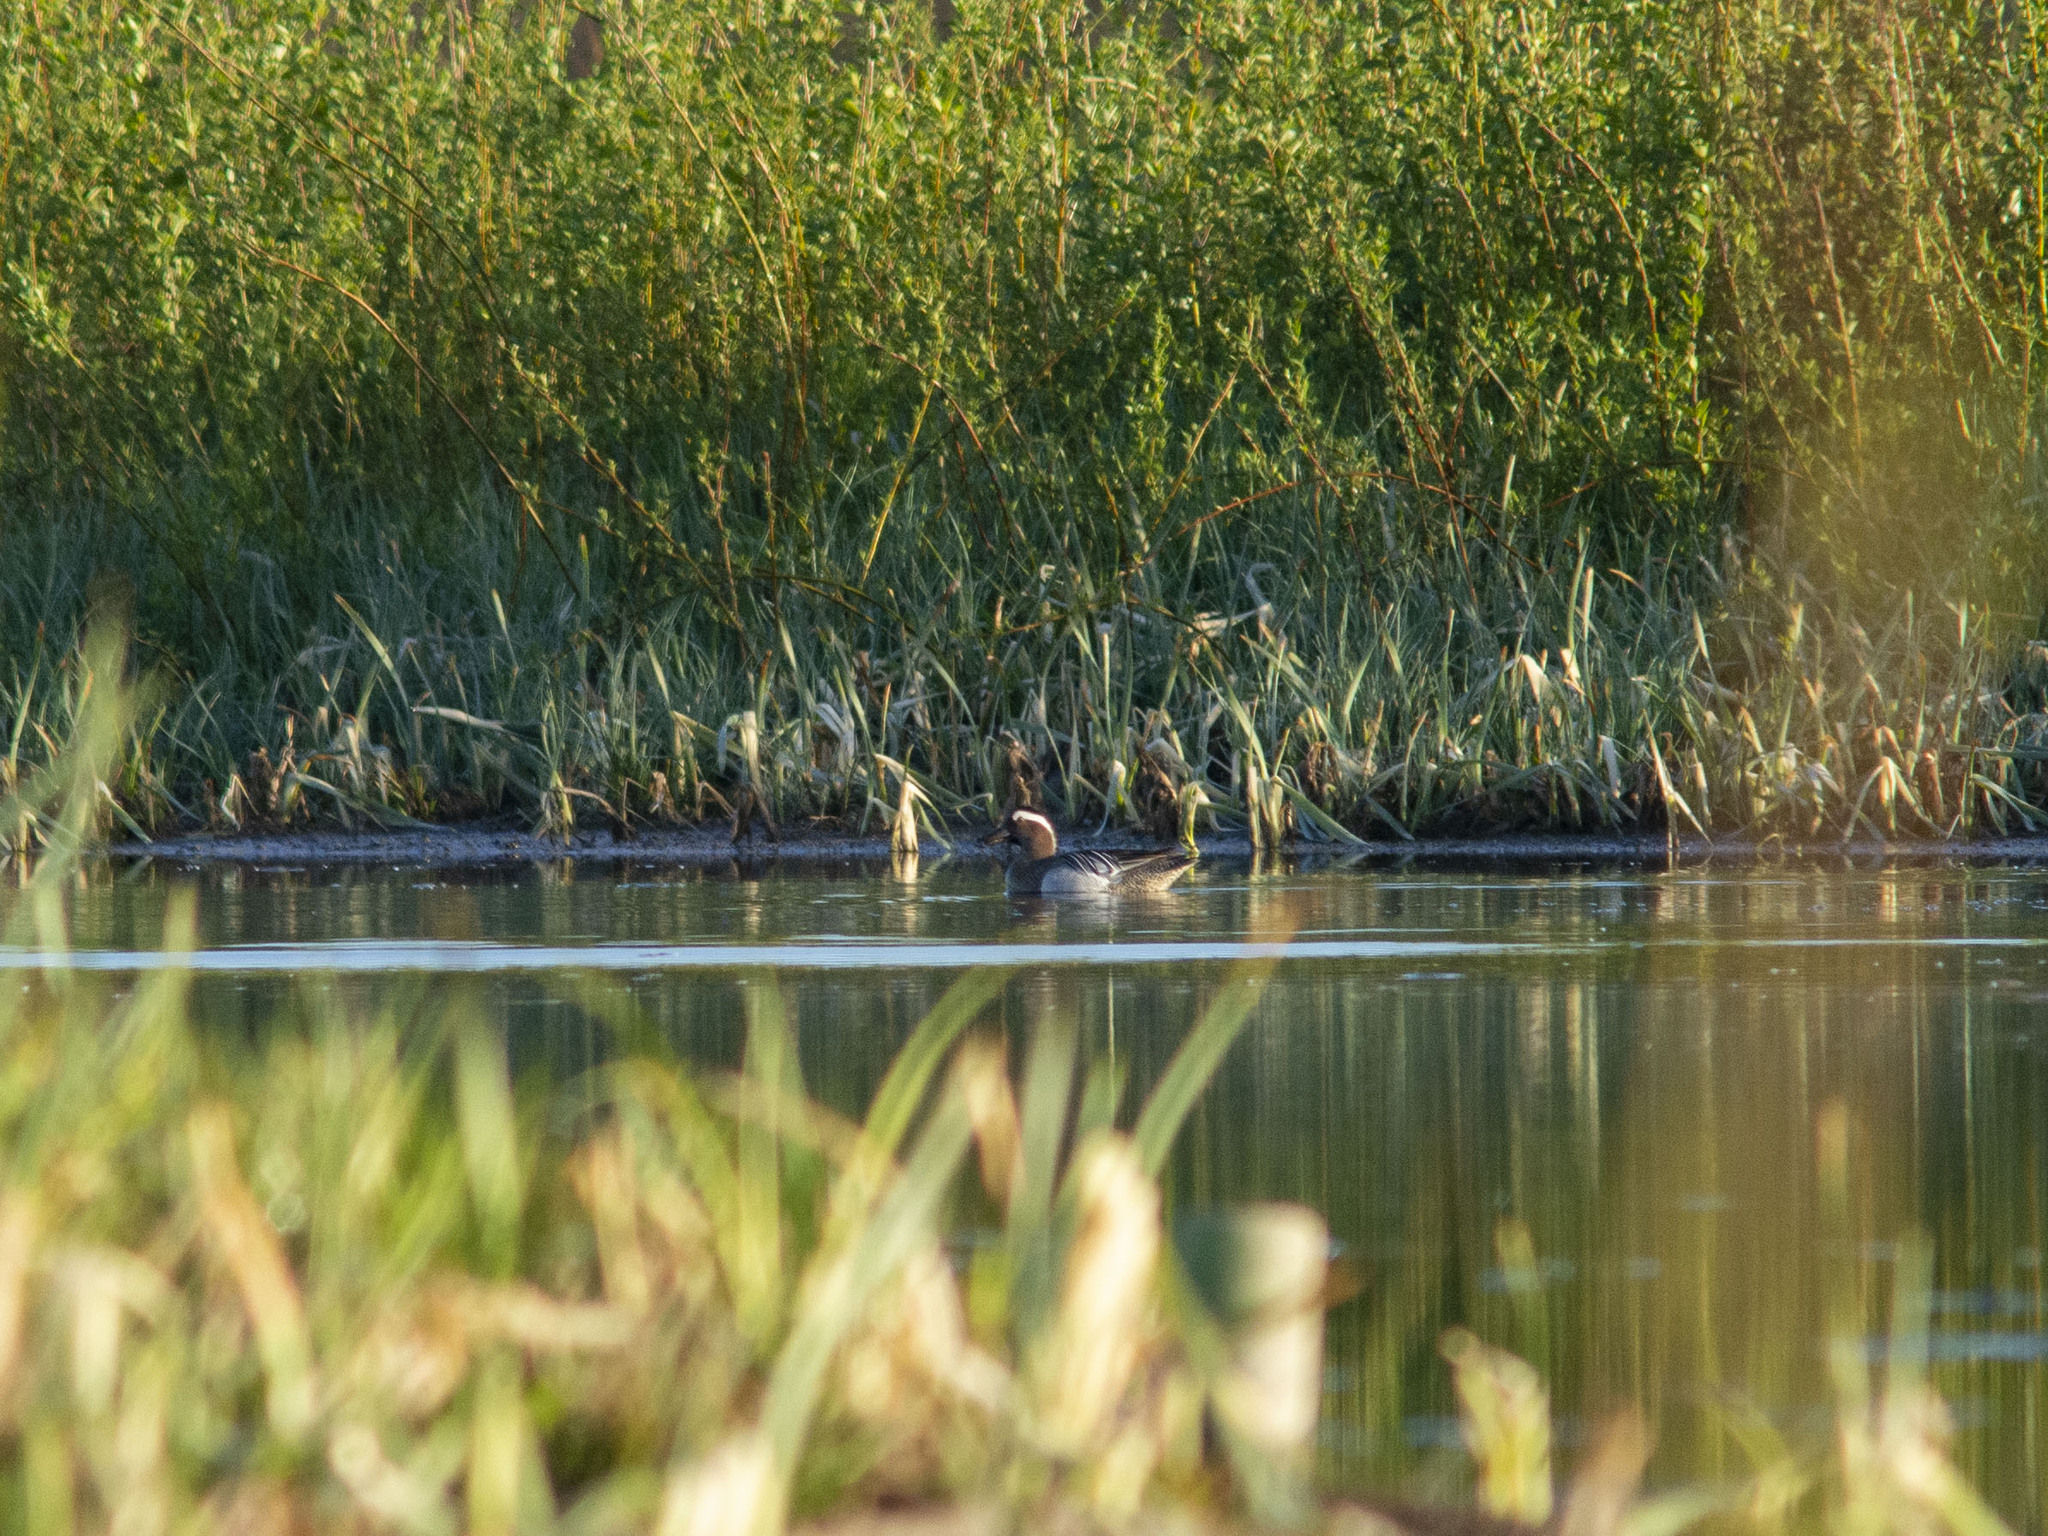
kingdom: Animalia
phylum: Chordata
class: Aves
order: Anseriformes
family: Anatidae
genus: Spatula
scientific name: Spatula querquedula
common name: Garganey
